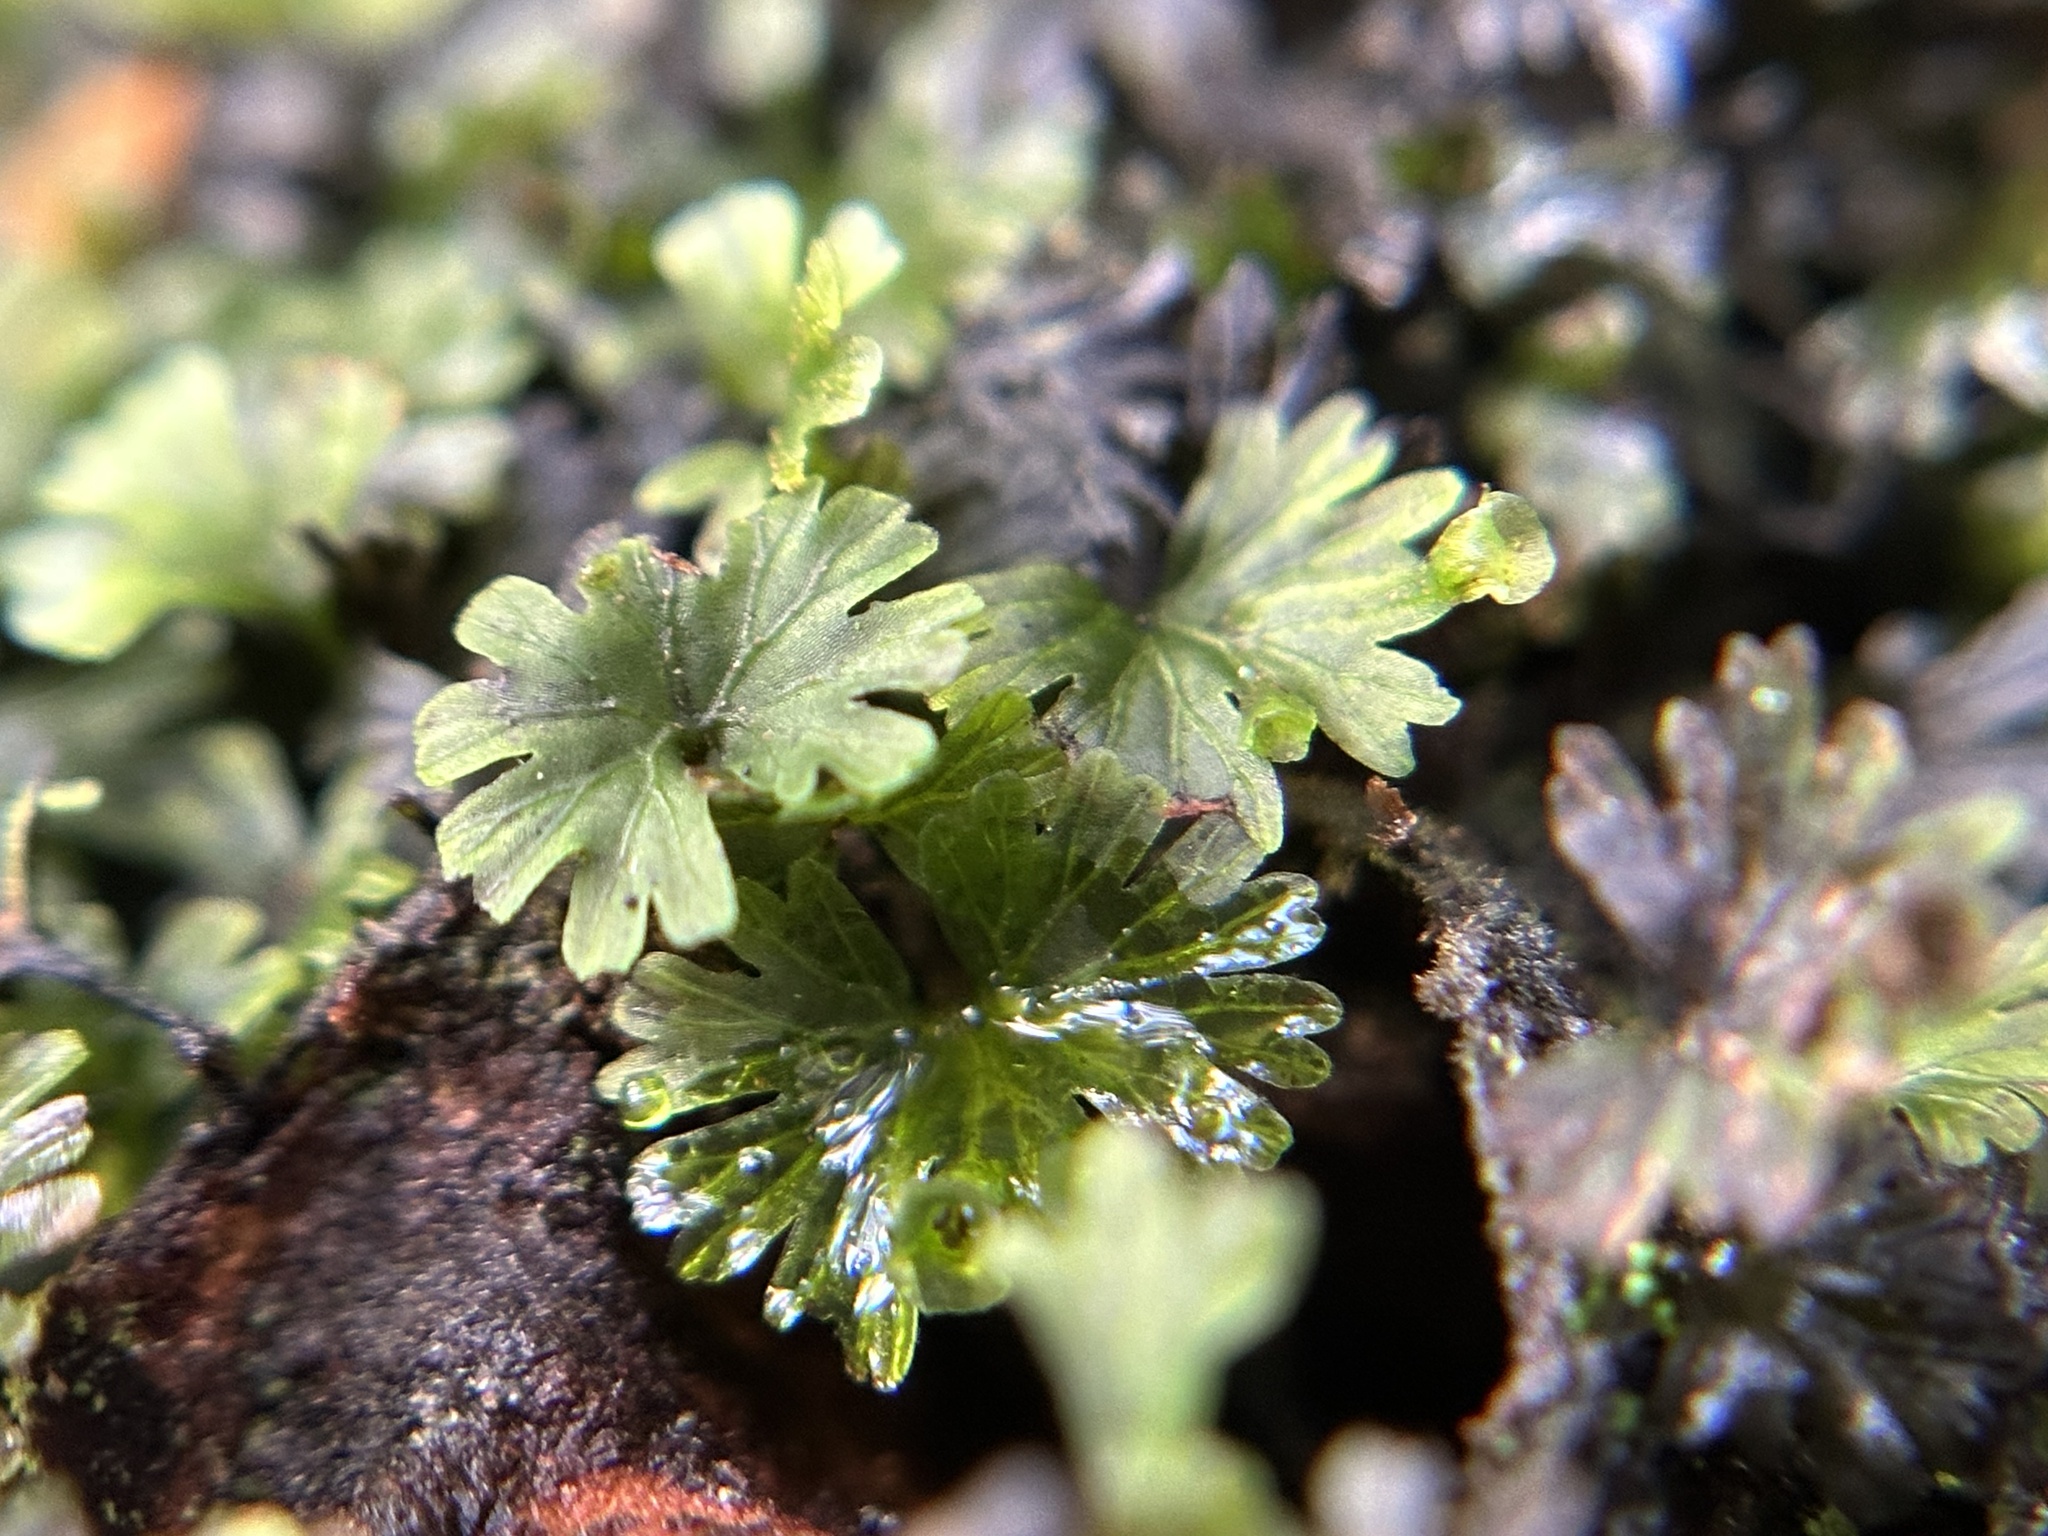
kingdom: Plantae
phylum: Tracheophyta
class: Polypodiopsida
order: Hymenophyllales
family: Hymenophyllaceae
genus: Crepidomanes
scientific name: Crepidomanes parvulum
